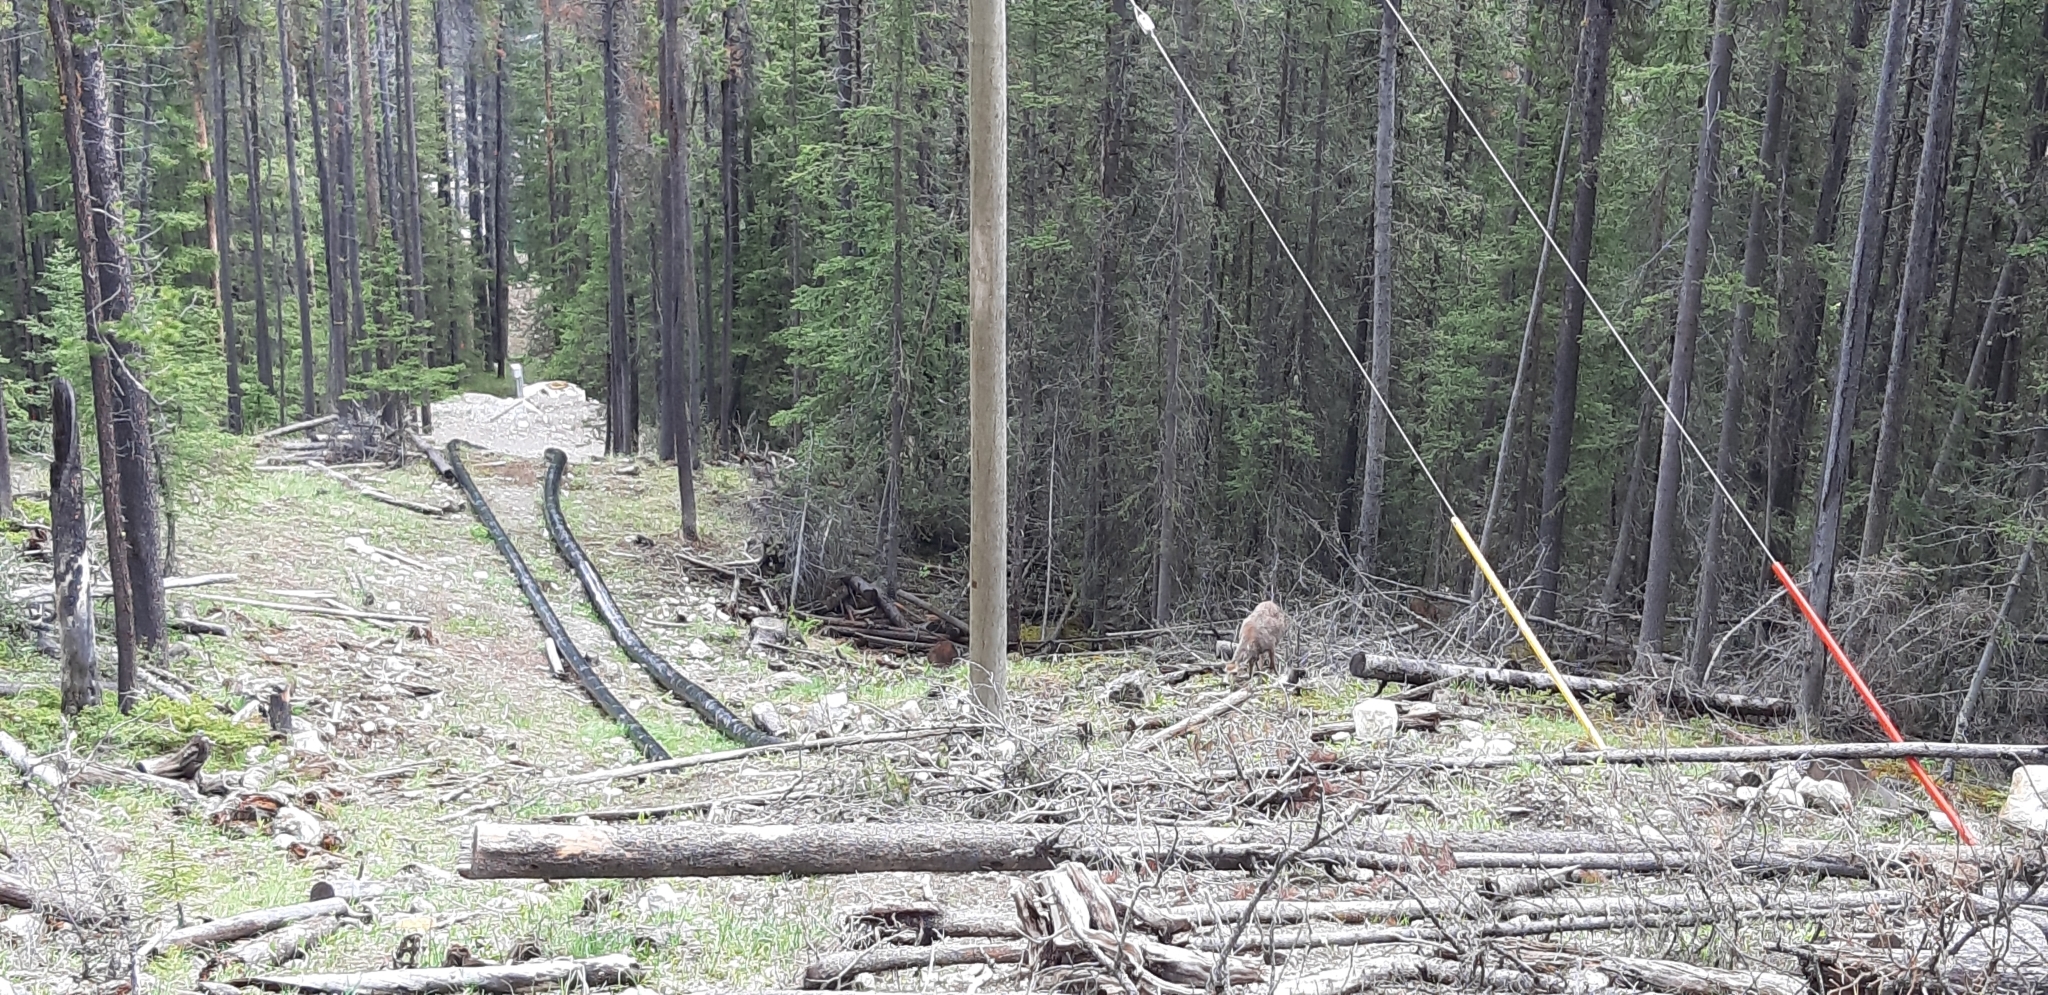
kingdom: Animalia
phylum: Chordata
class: Mammalia
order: Artiodactyla
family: Cervidae
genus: Odocoileus
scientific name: Odocoileus hemionus
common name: Mule deer
